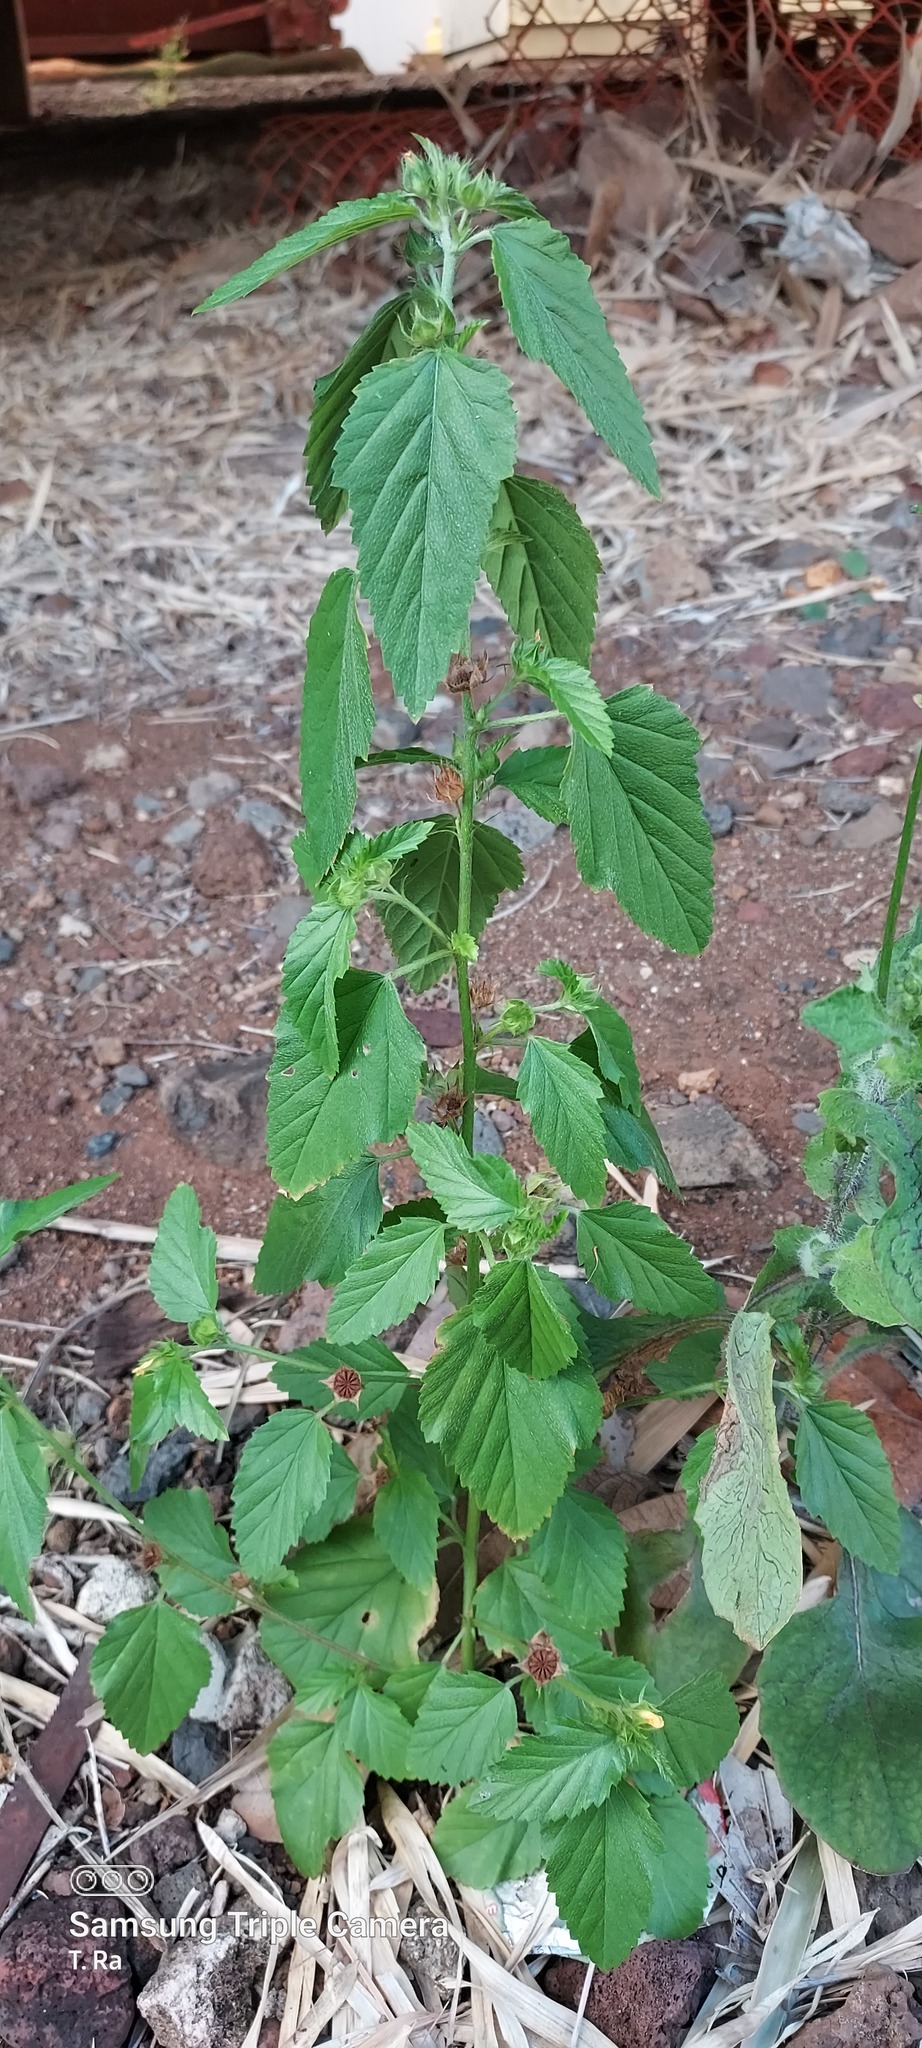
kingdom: Plantae
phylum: Tracheophyta
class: Magnoliopsida
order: Malvales
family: Malvaceae
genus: Malvastrum
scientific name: Malvastrum coromandelianum
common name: Threelobe false mallow
